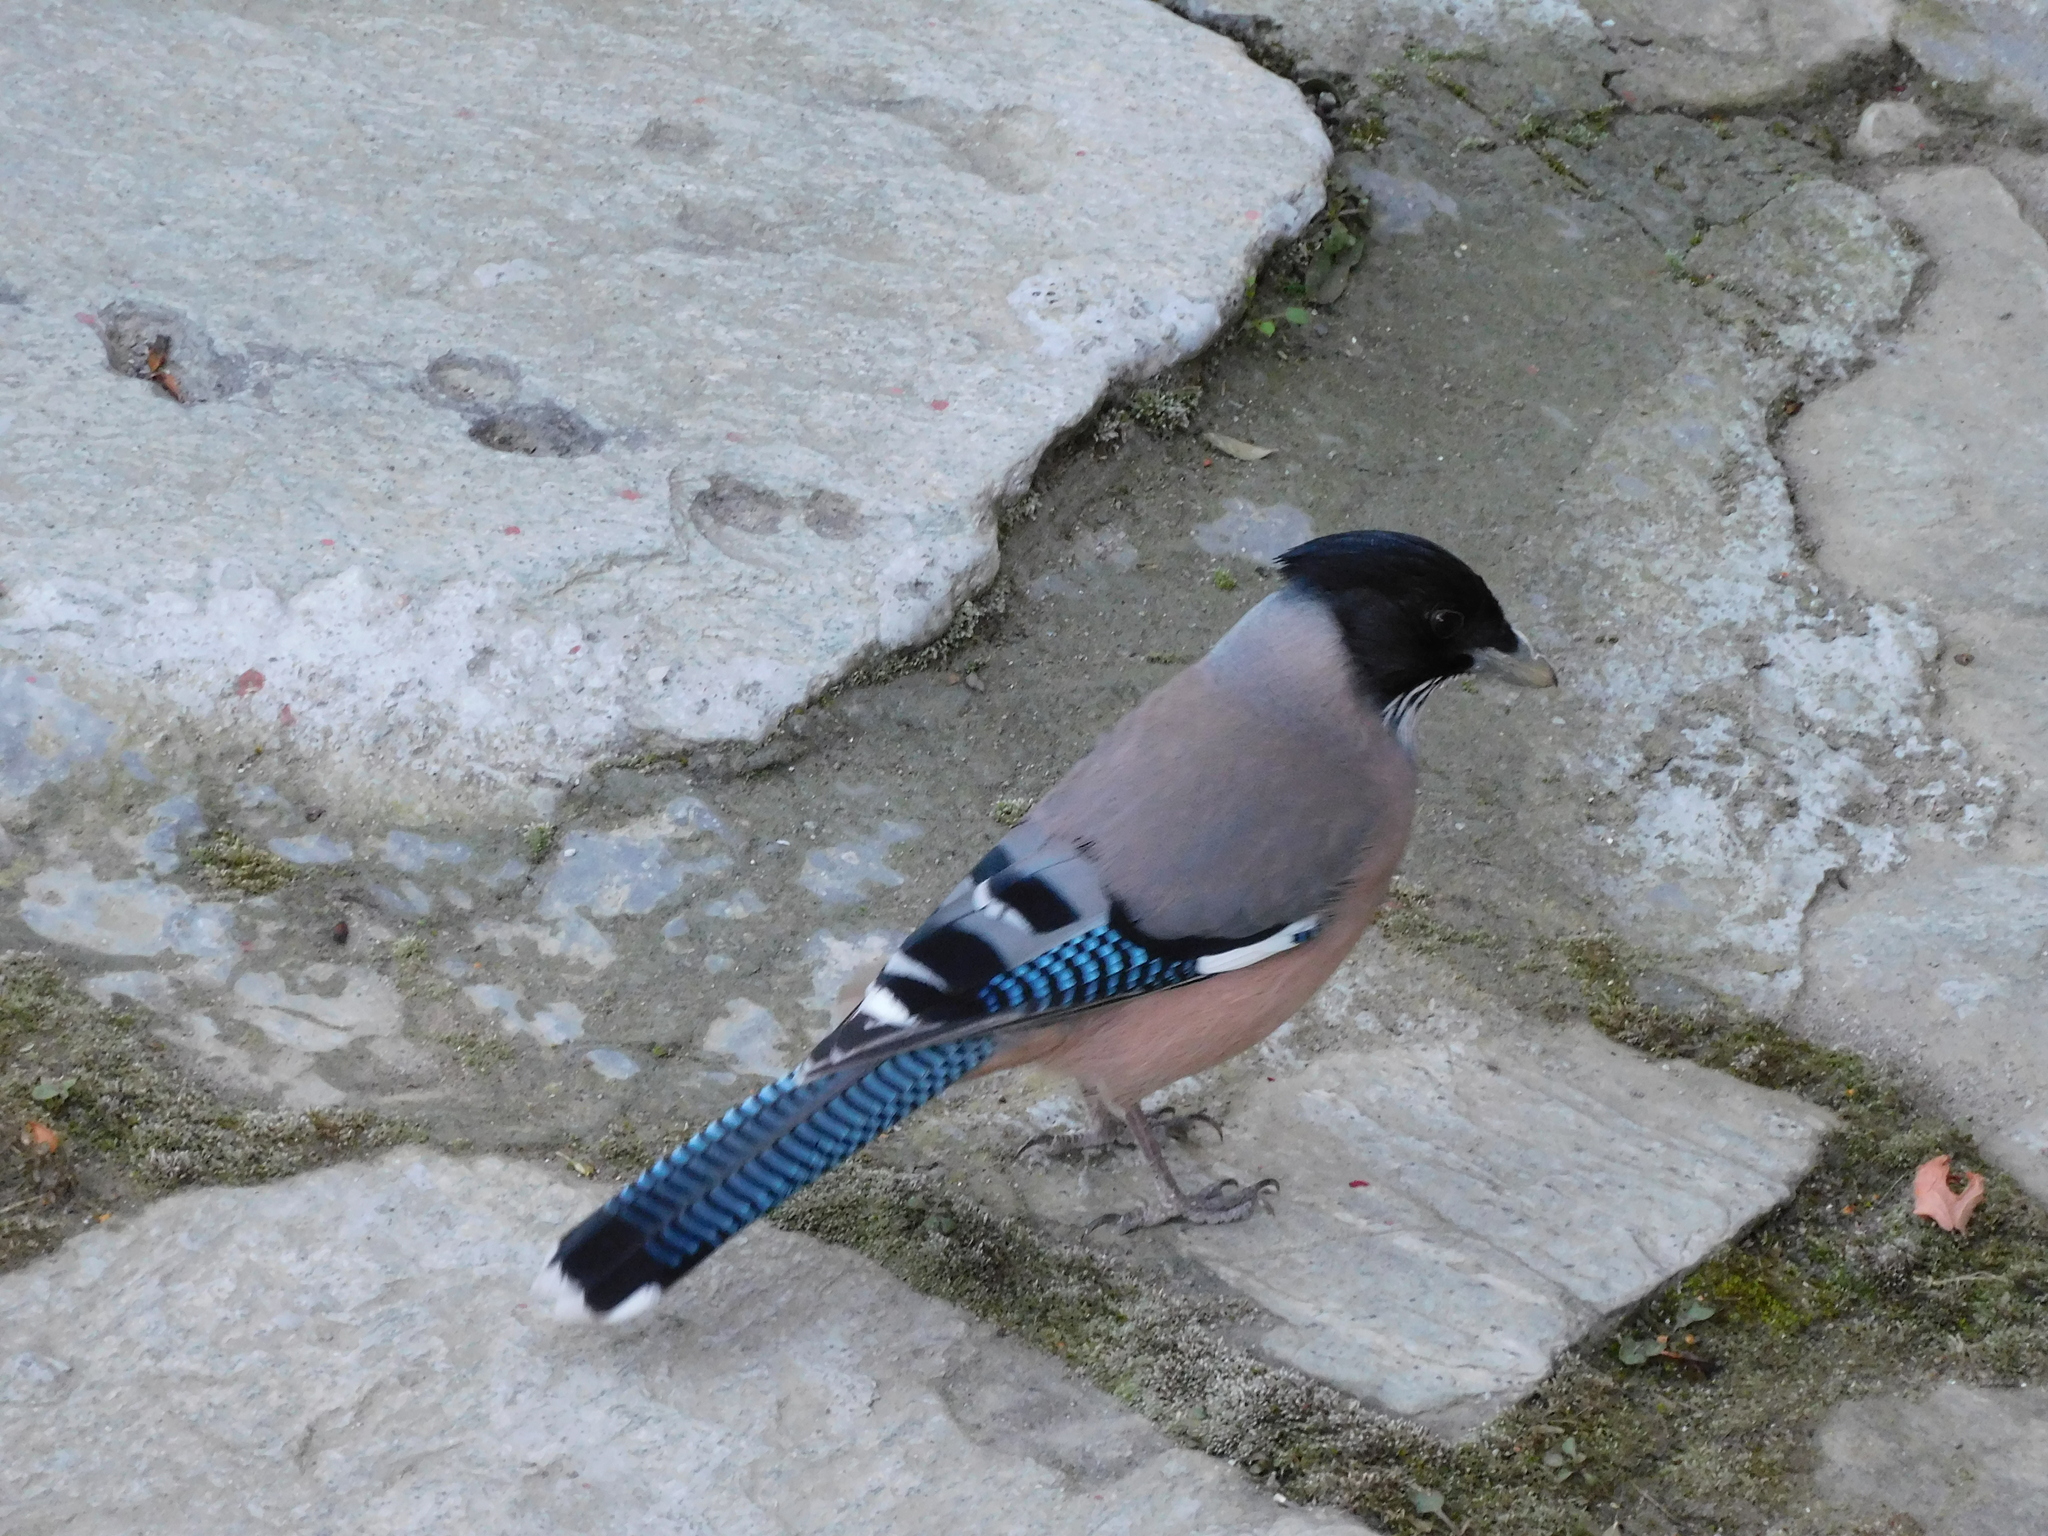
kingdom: Animalia
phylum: Chordata
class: Aves
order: Passeriformes
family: Corvidae
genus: Garrulus
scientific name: Garrulus lanceolatus
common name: Black-headed jay
